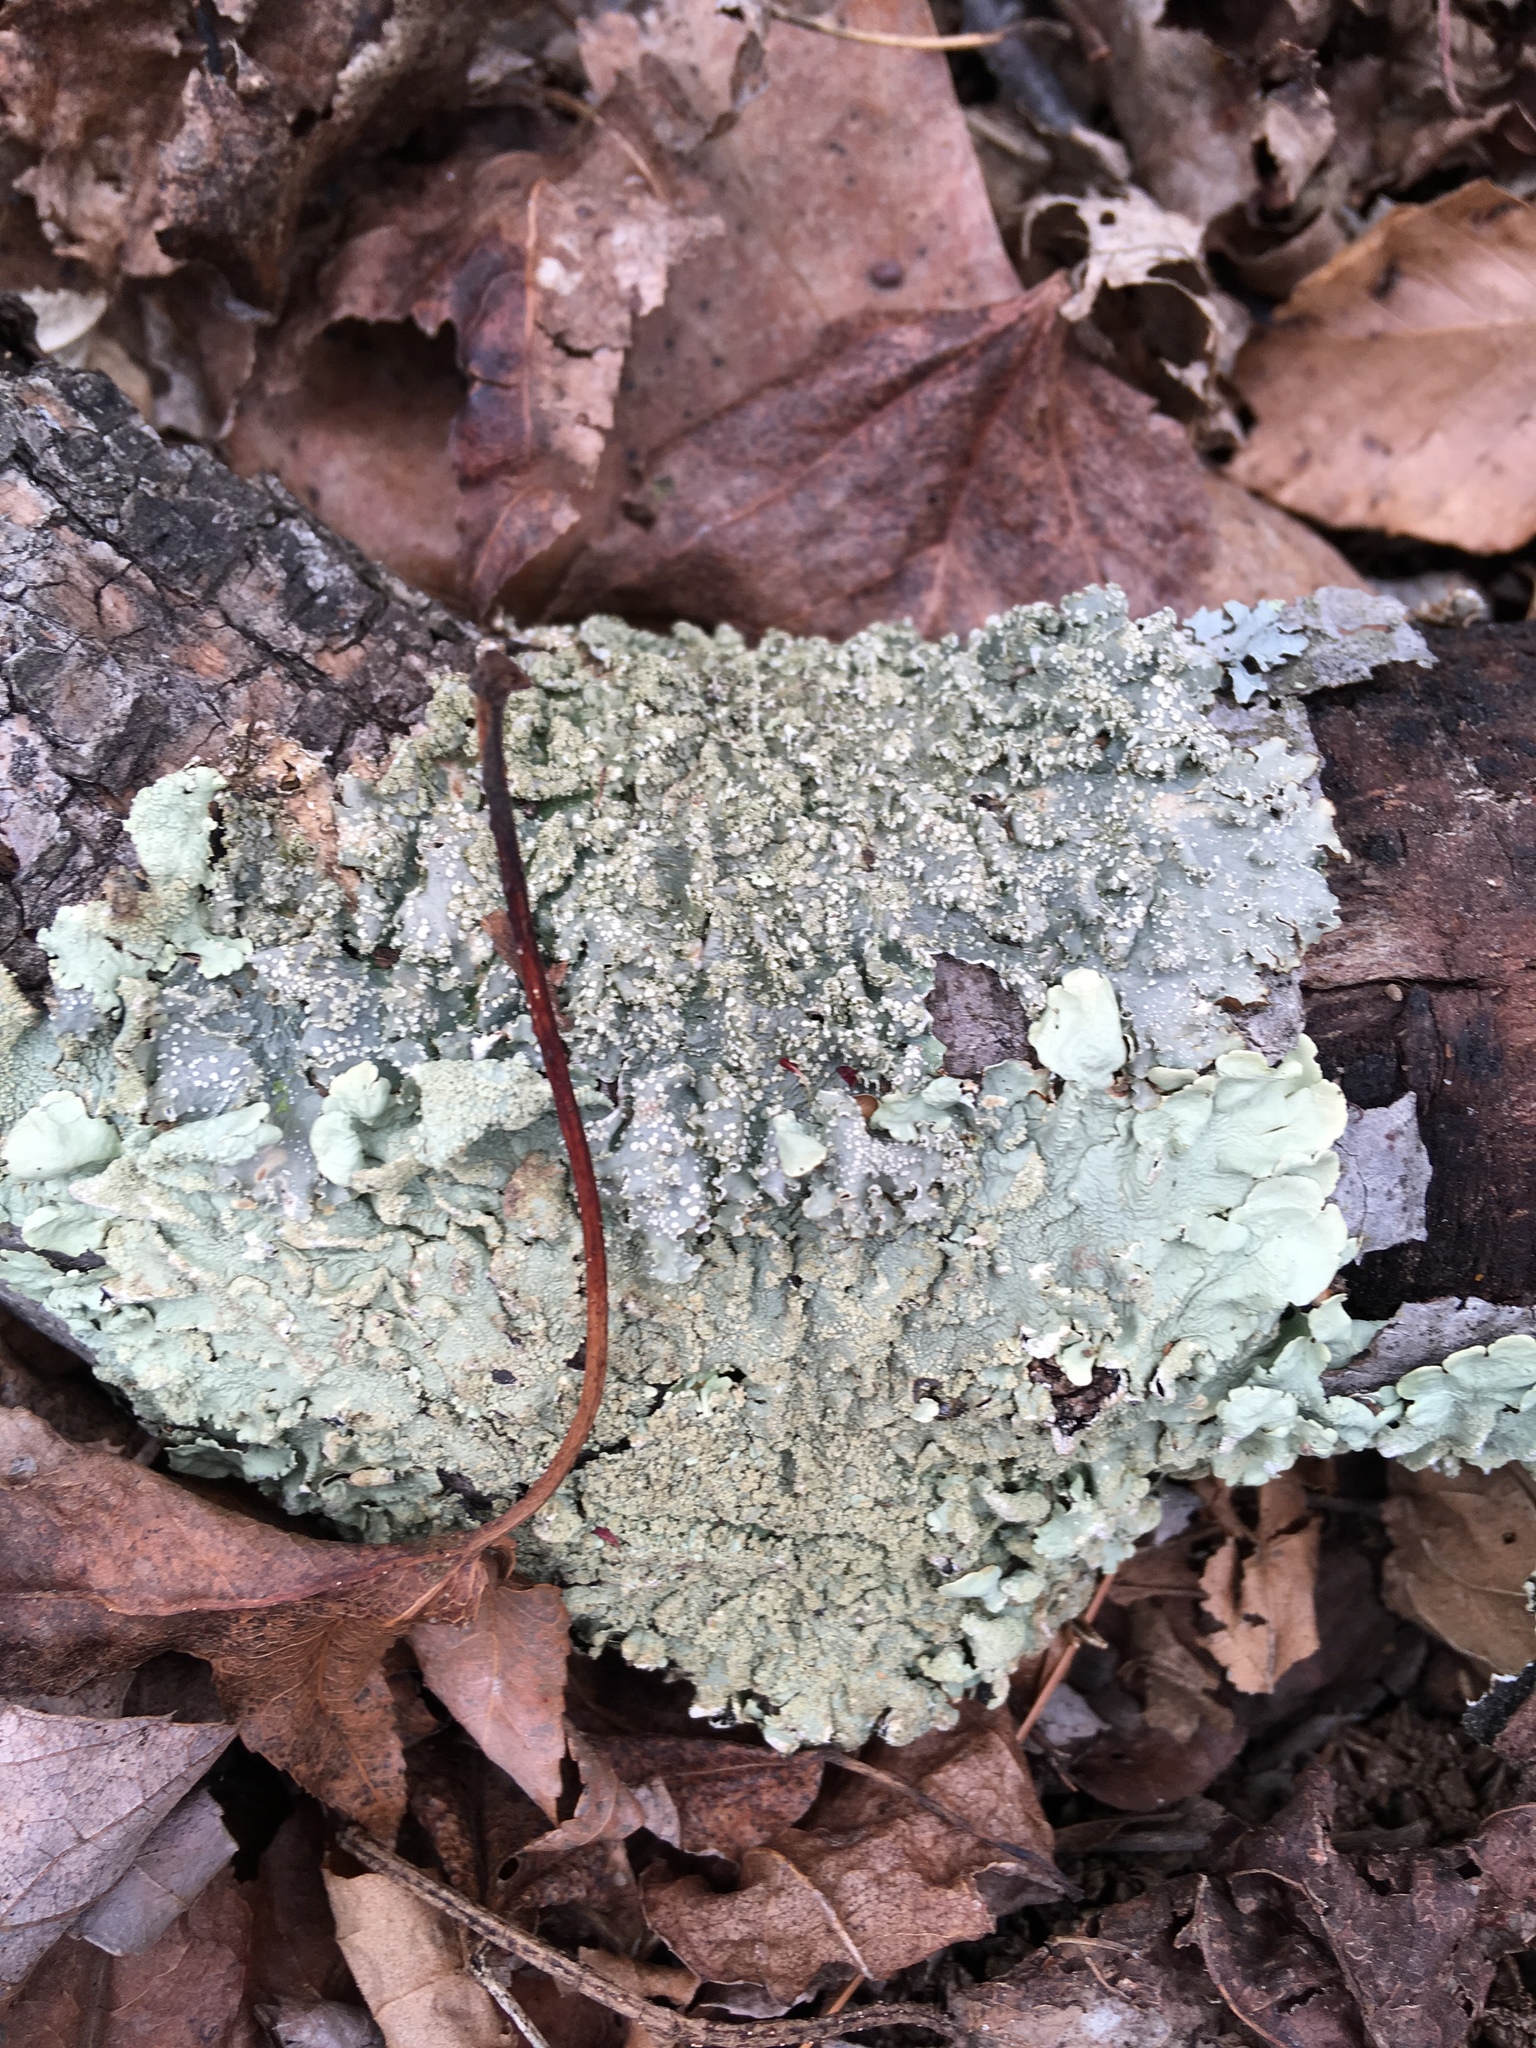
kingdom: Fungi
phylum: Ascomycota
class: Lecanoromycetes
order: Lecanorales
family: Parmeliaceae
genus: Punctelia
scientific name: Punctelia caseana
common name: Moondust speckled lichen
